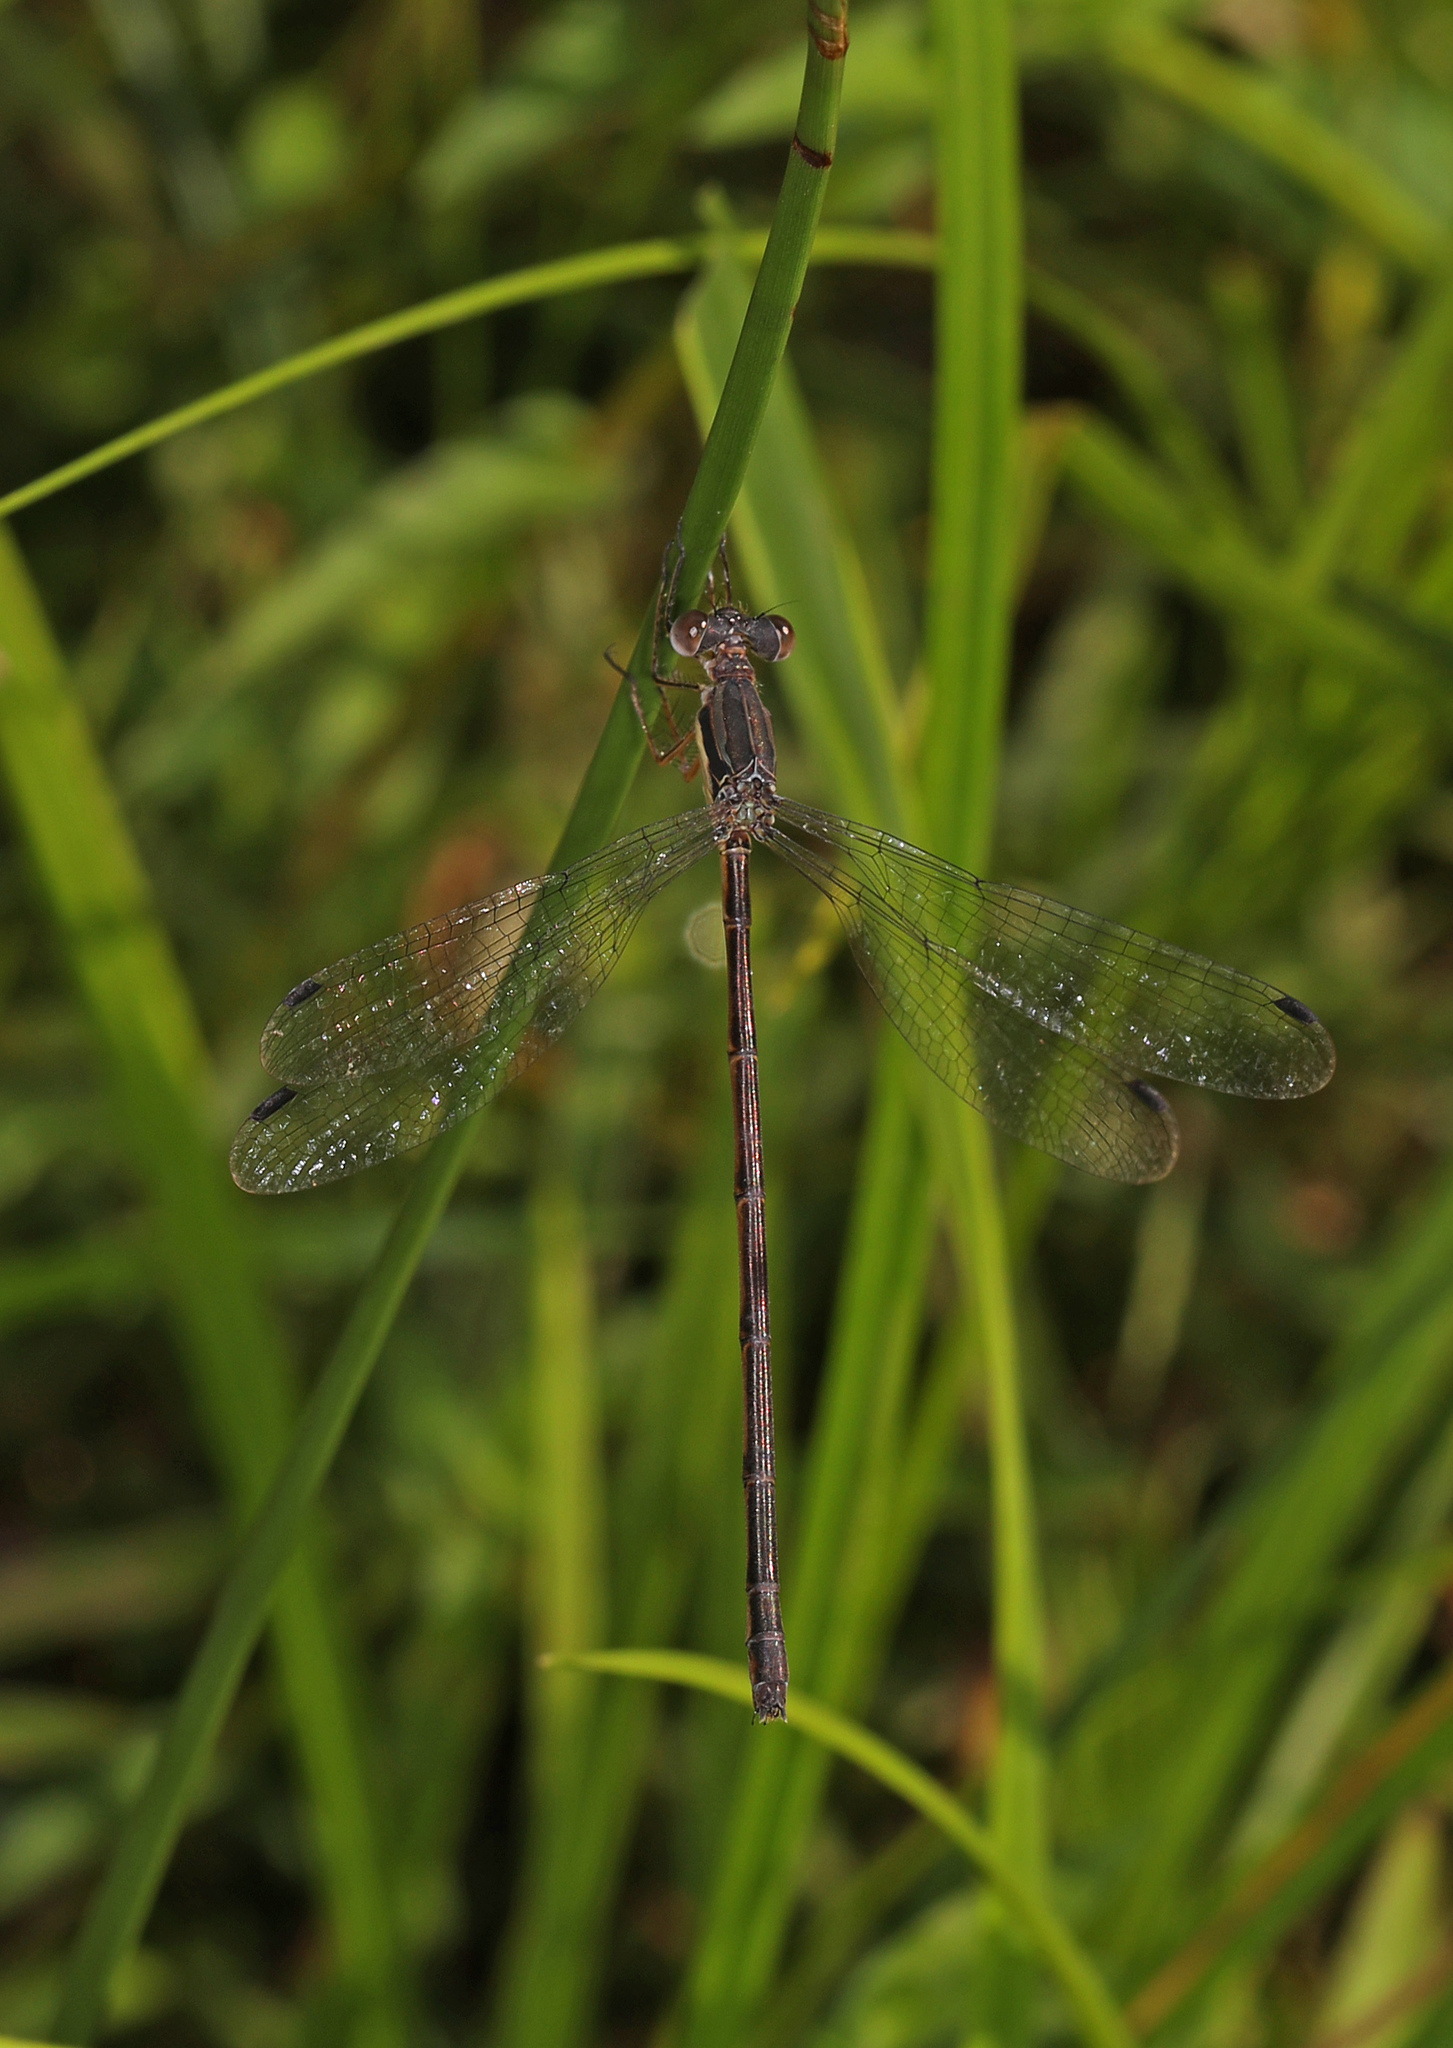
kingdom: Animalia
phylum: Arthropoda
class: Insecta
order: Odonata
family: Lestidae
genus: Lestes
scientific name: Lestes rectangularis
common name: Slender spreadwing
